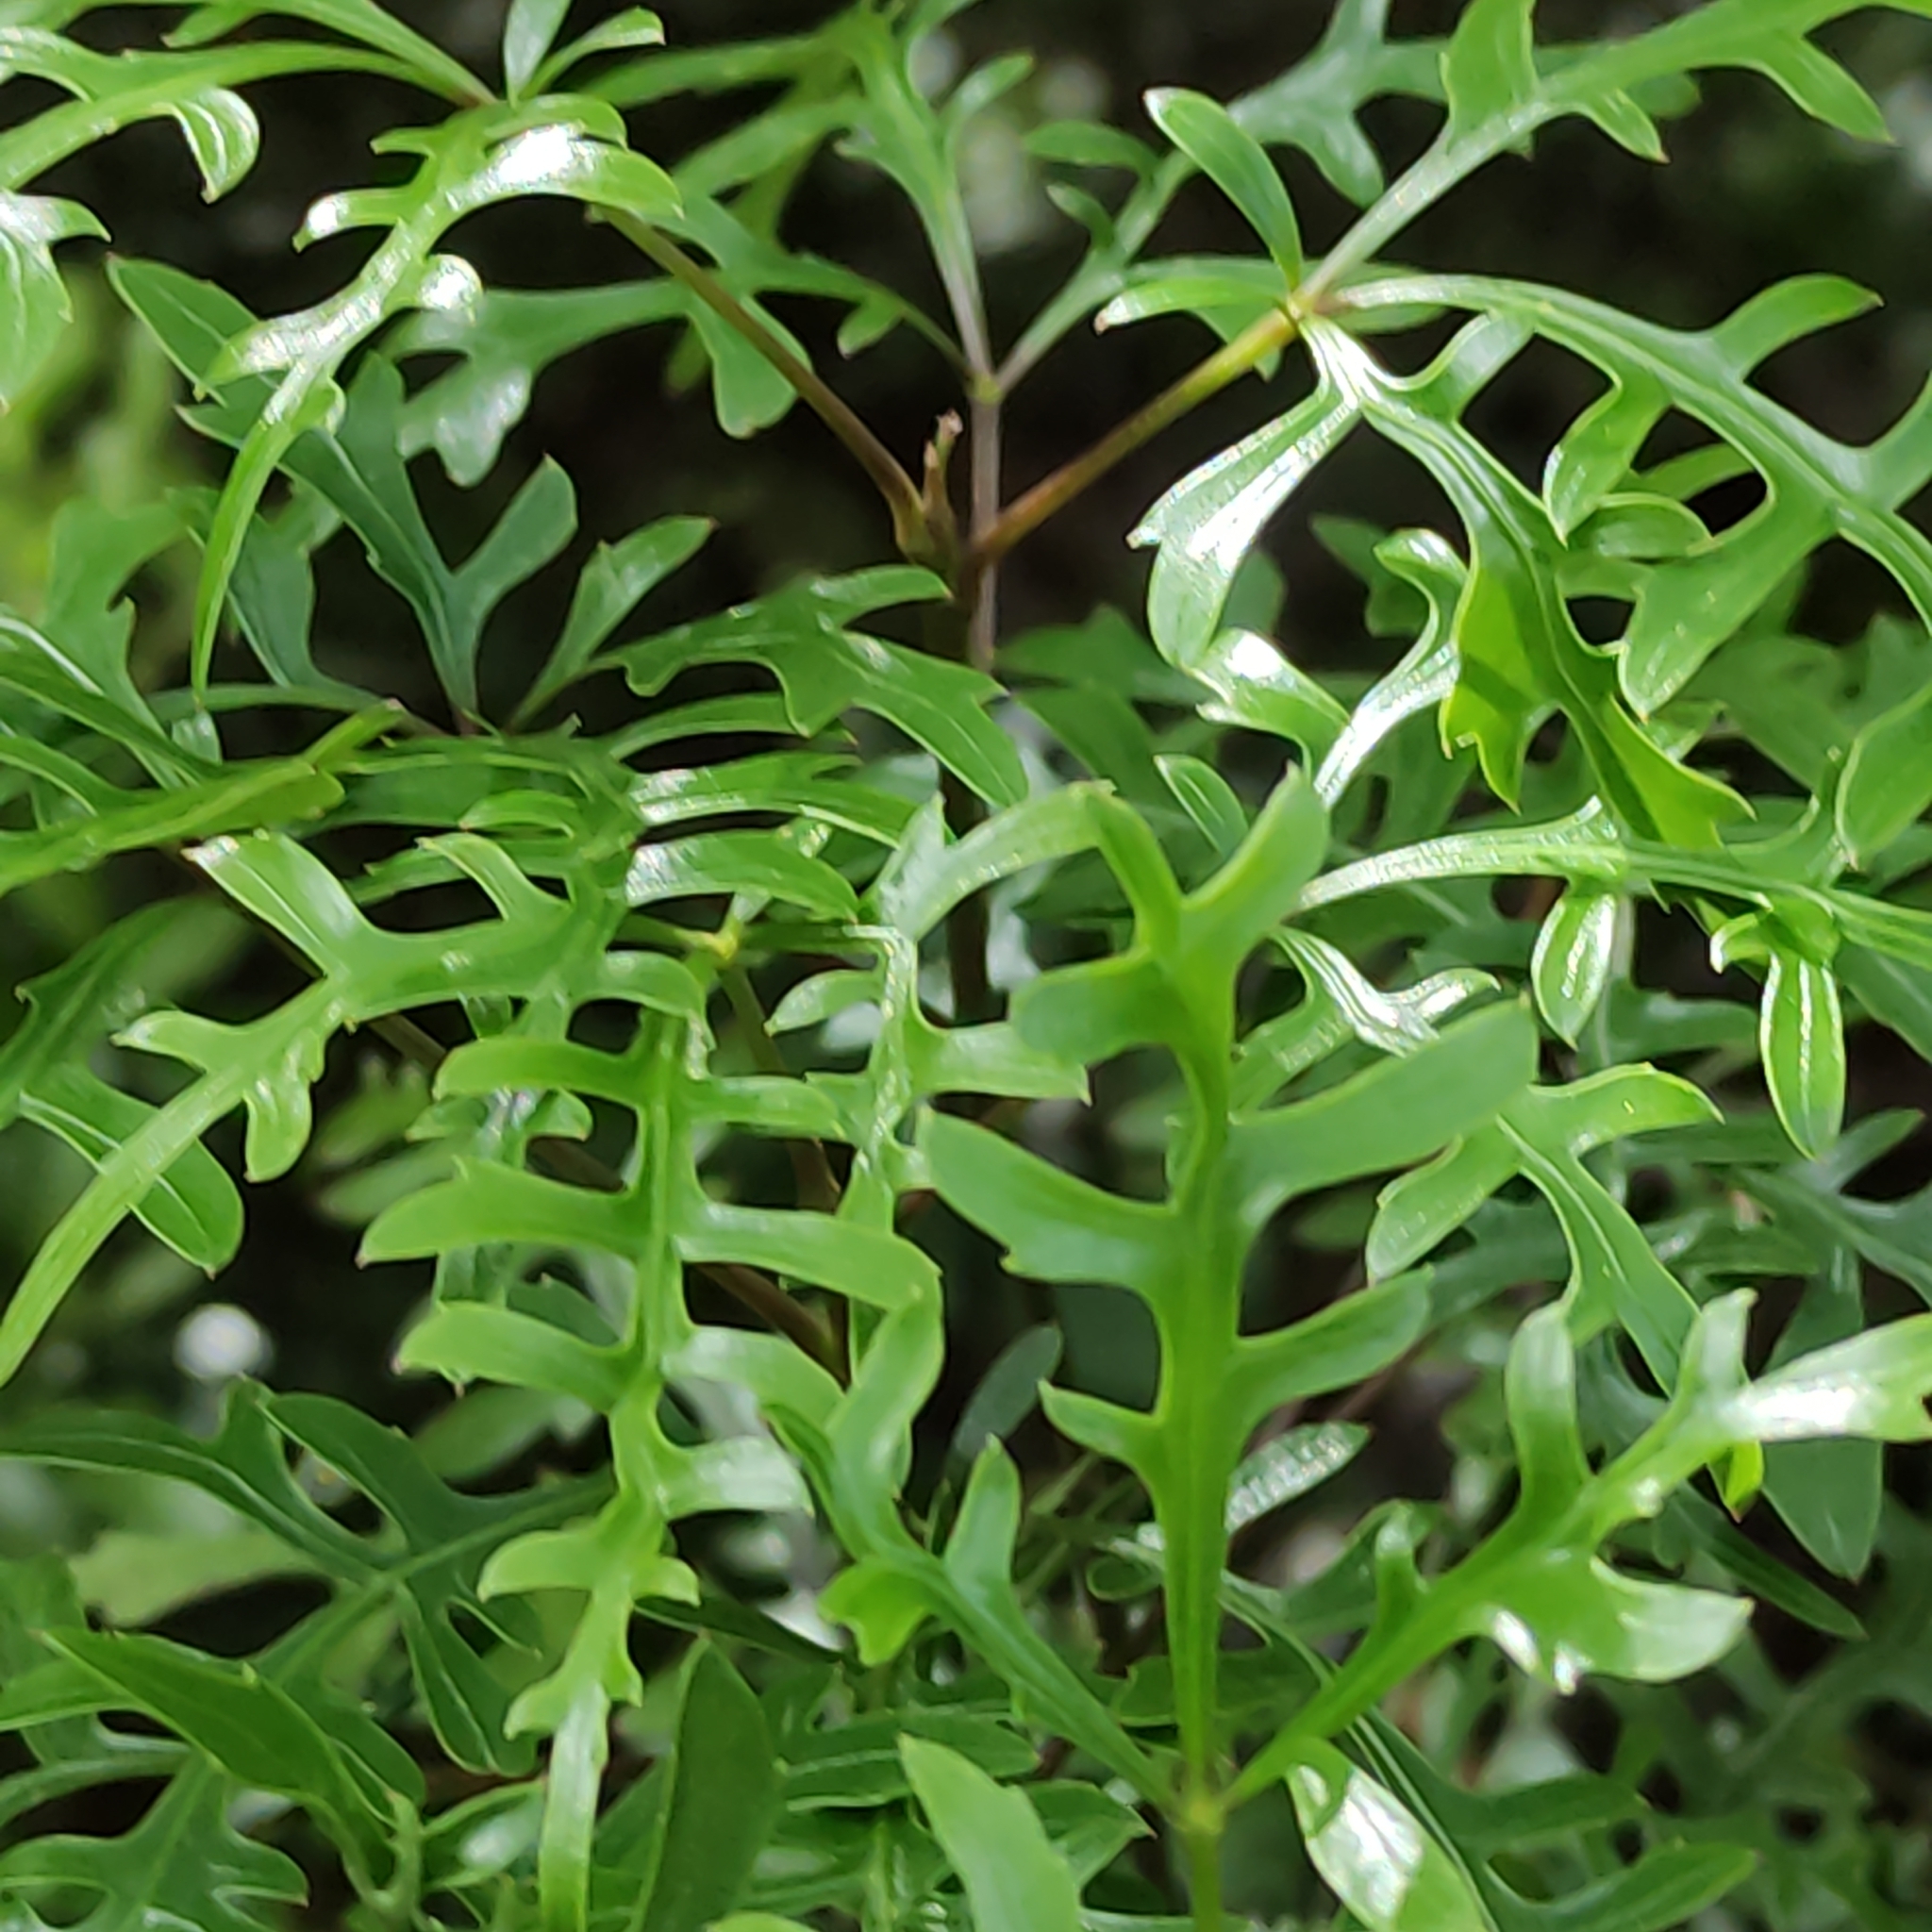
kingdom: Plantae
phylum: Tracheophyta
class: Magnoliopsida
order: Apiales
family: Araliaceae
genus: Raukaua
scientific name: Raukaua simplex
